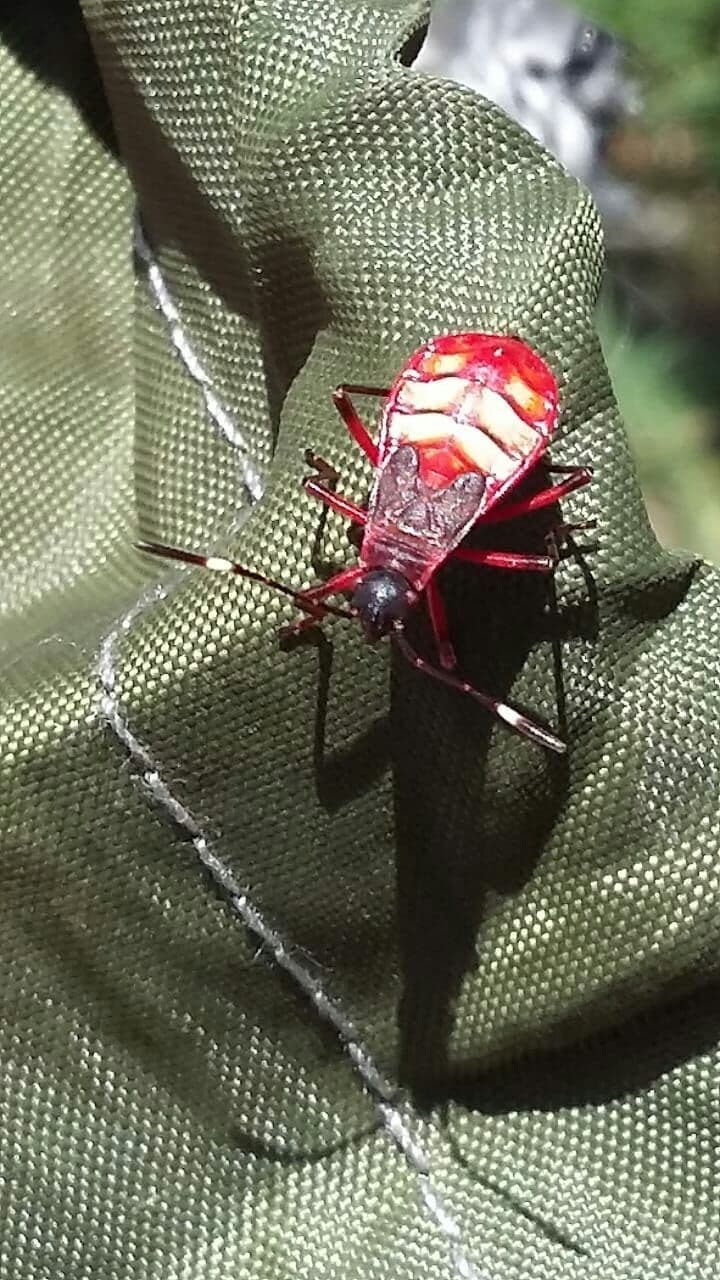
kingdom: Animalia
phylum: Arthropoda
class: Insecta
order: Hemiptera
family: Pyrrhocoridae
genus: Dysdercus
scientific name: Dysdercus albofasciatus
